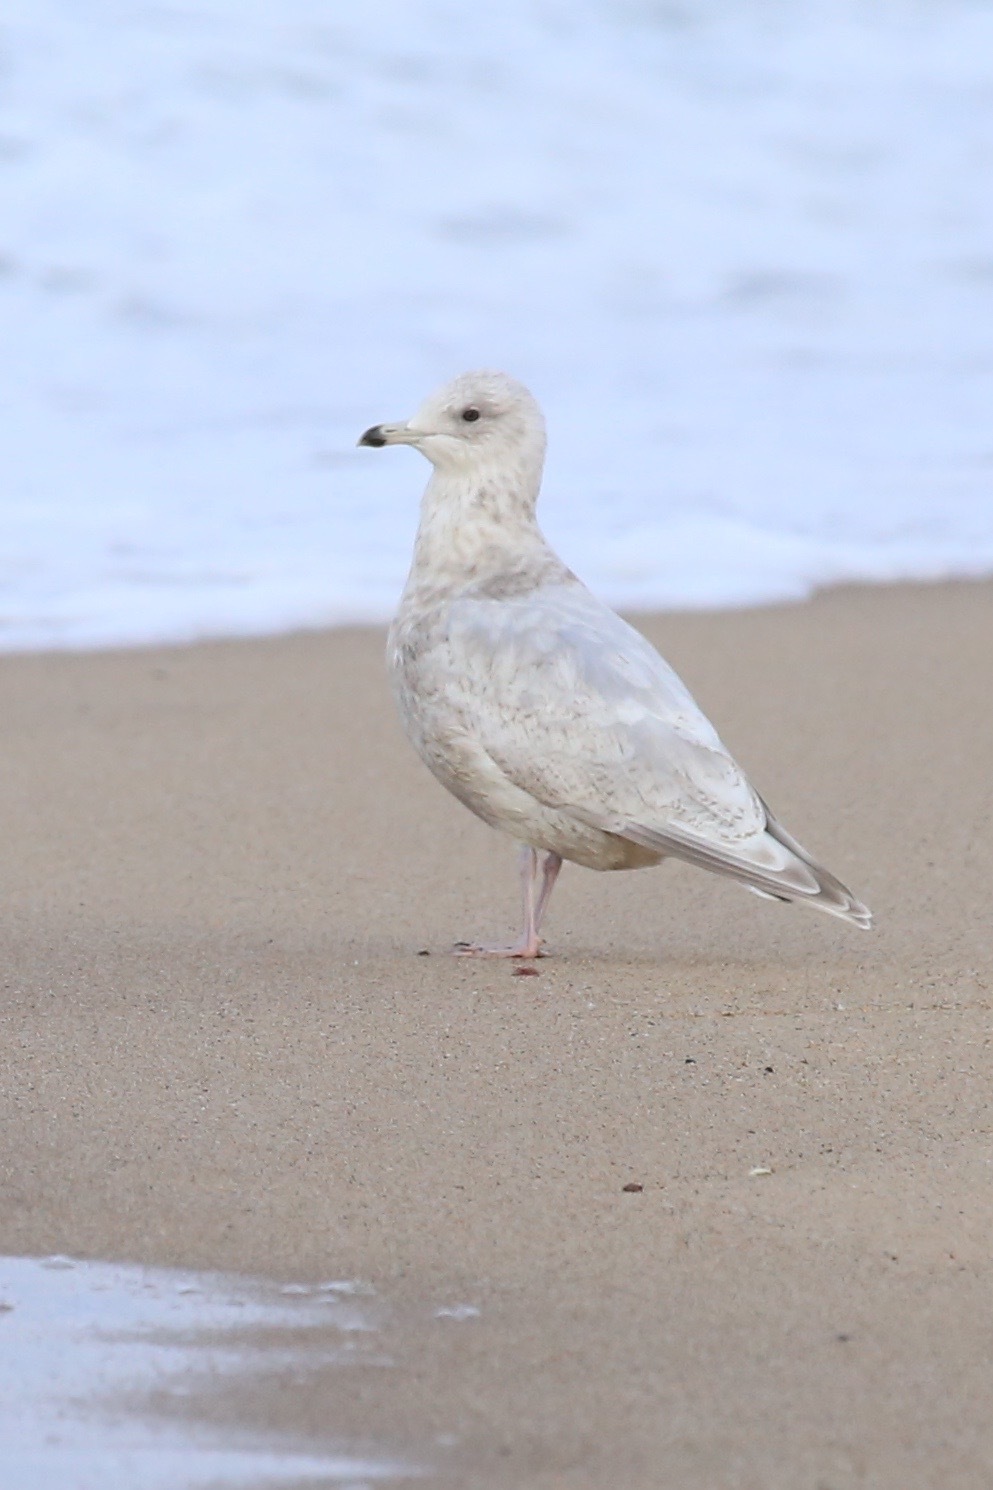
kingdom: Animalia
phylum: Chordata
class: Aves
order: Charadriiformes
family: Laridae
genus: Larus
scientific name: Larus glaucoides
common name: Iceland gull
